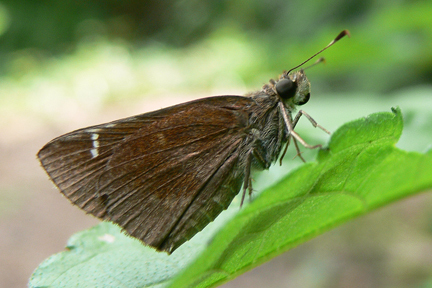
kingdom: Animalia
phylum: Arthropoda
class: Insecta
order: Lepidoptera
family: Hesperiidae
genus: Lerema
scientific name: Lerema accius
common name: Clouded skipper
